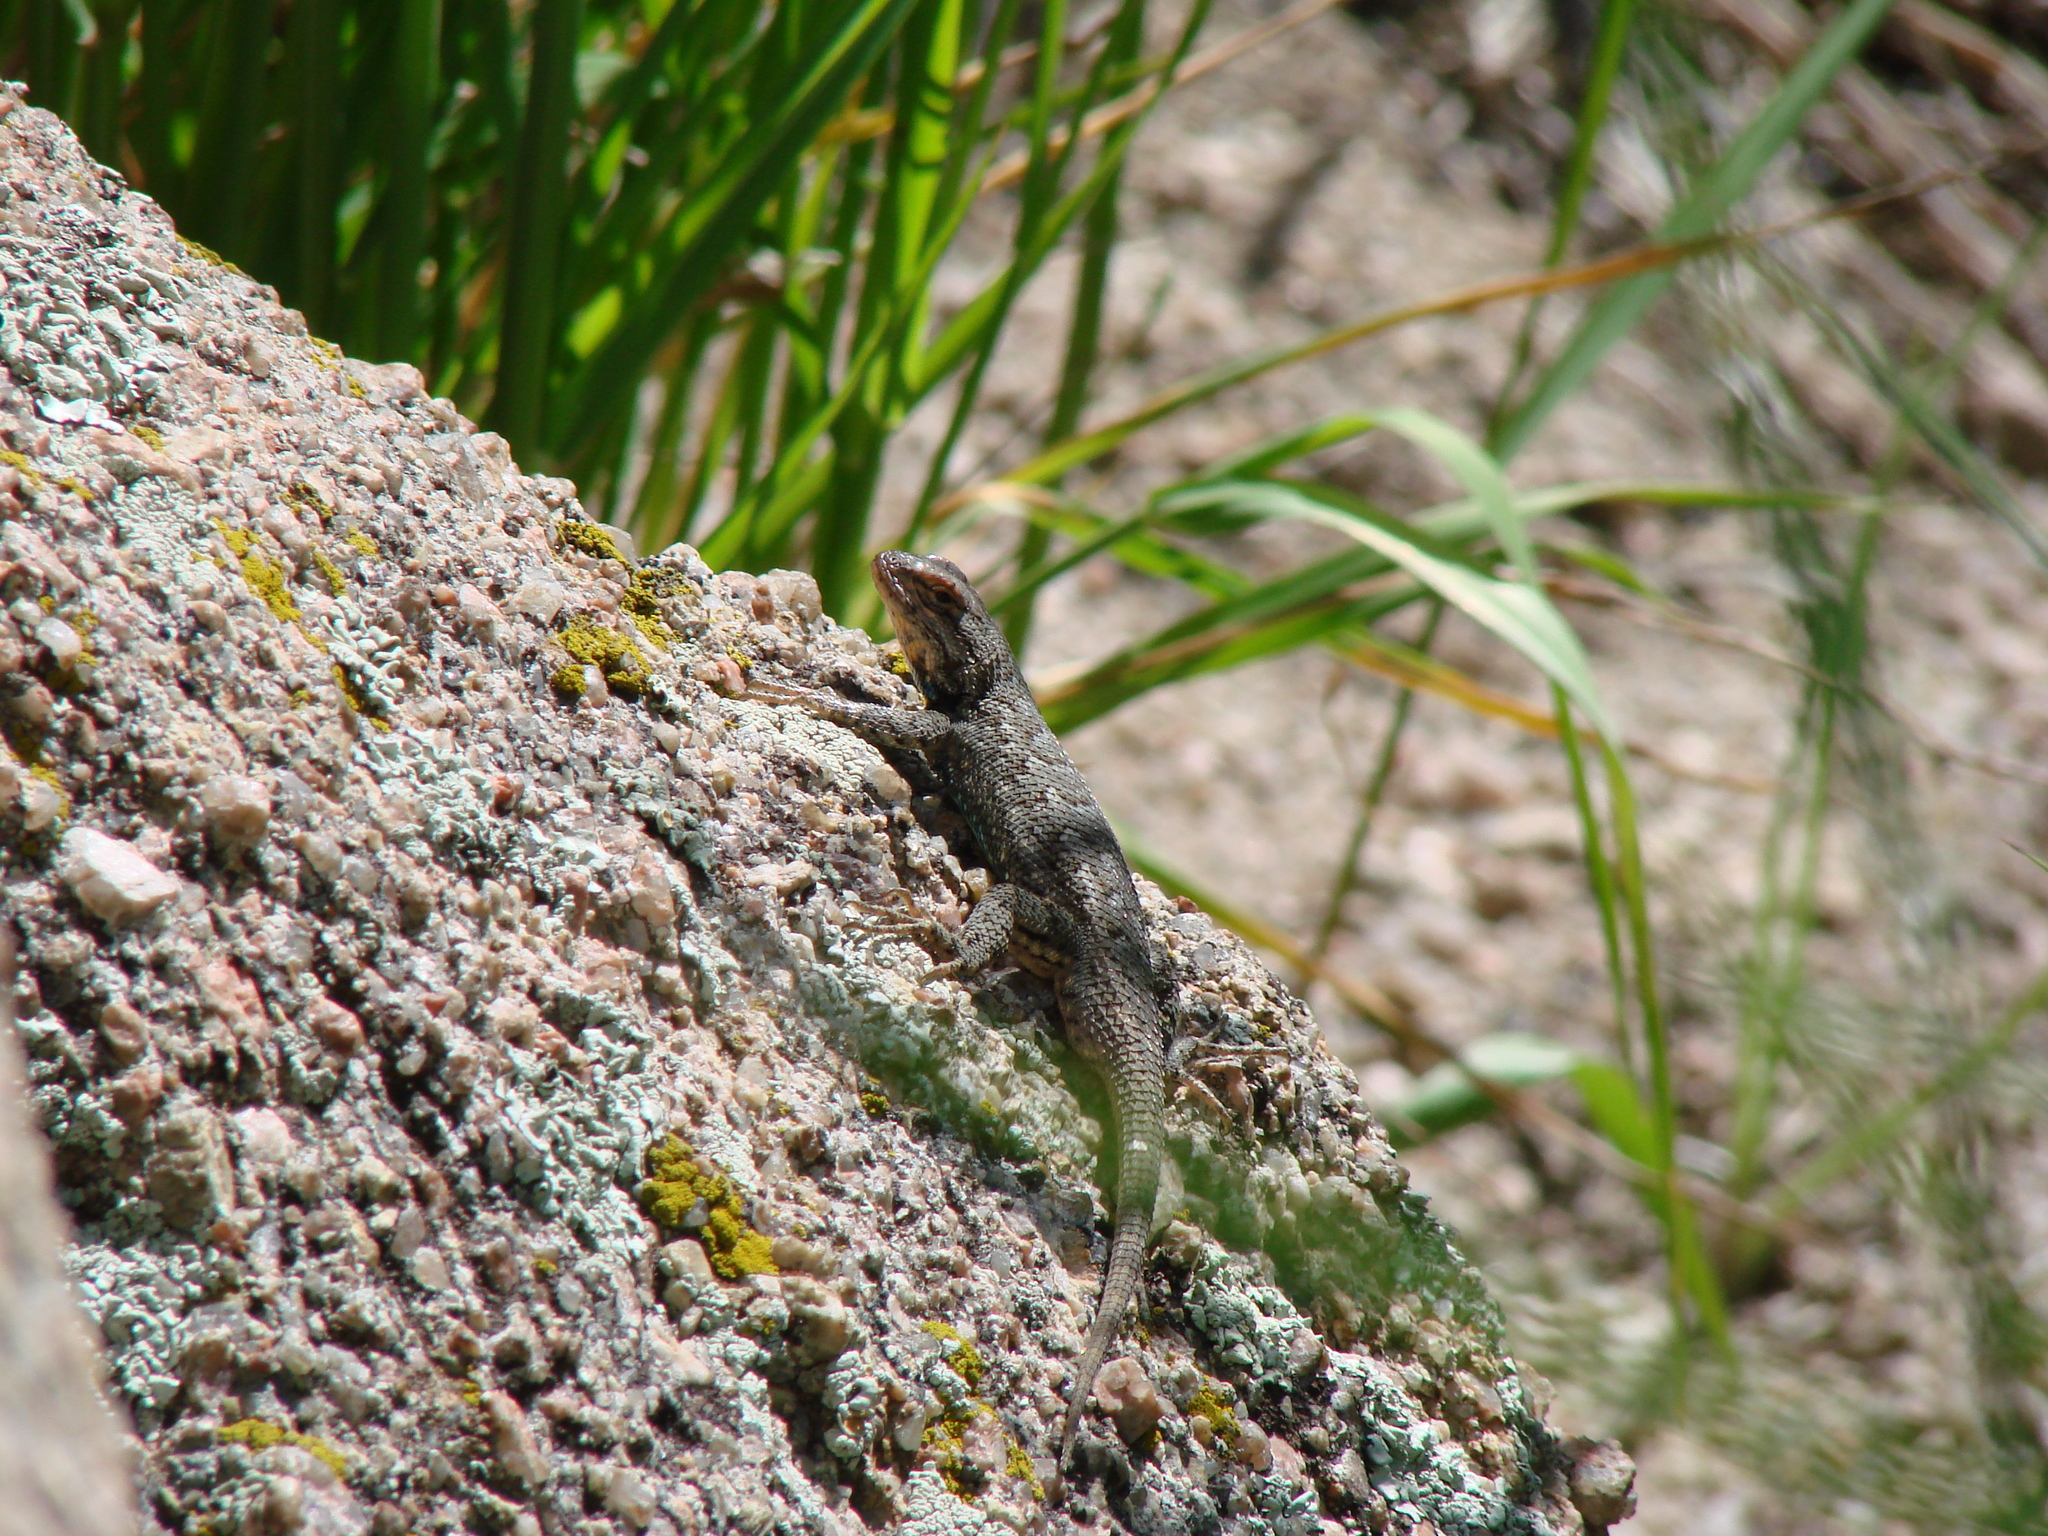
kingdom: Animalia
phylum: Chordata
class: Squamata
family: Phrynosomatidae
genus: Sceloporus
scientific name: Sceloporus consobrinus
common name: Southern prairie lizard
